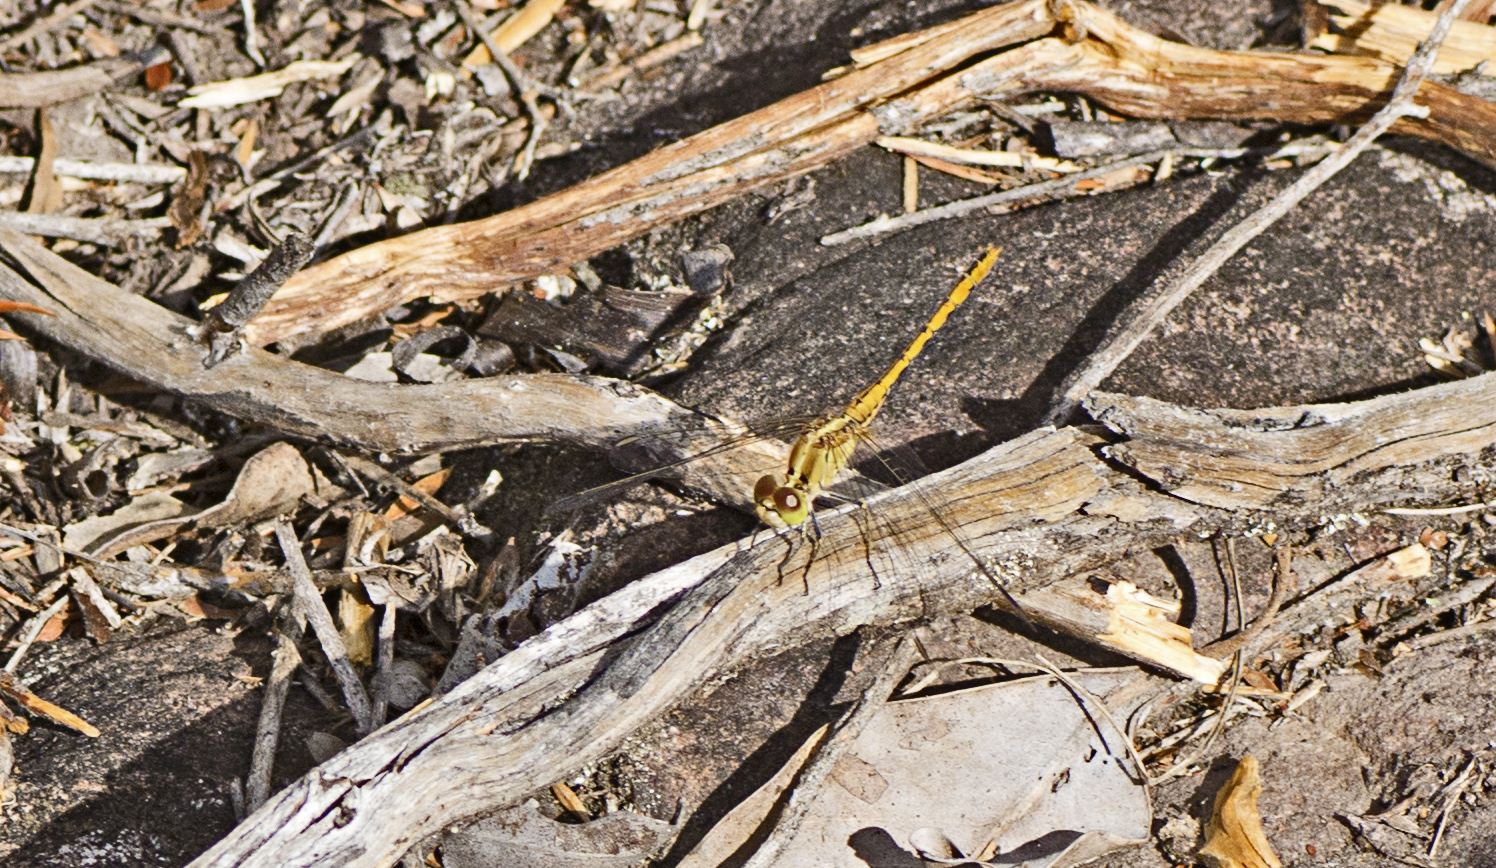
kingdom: Animalia
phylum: Arthropoda
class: Insecta
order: Odonata
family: Libellulidae
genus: Diplacodes
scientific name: Diplacodes bipunctata
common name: Red percher dragonfly
